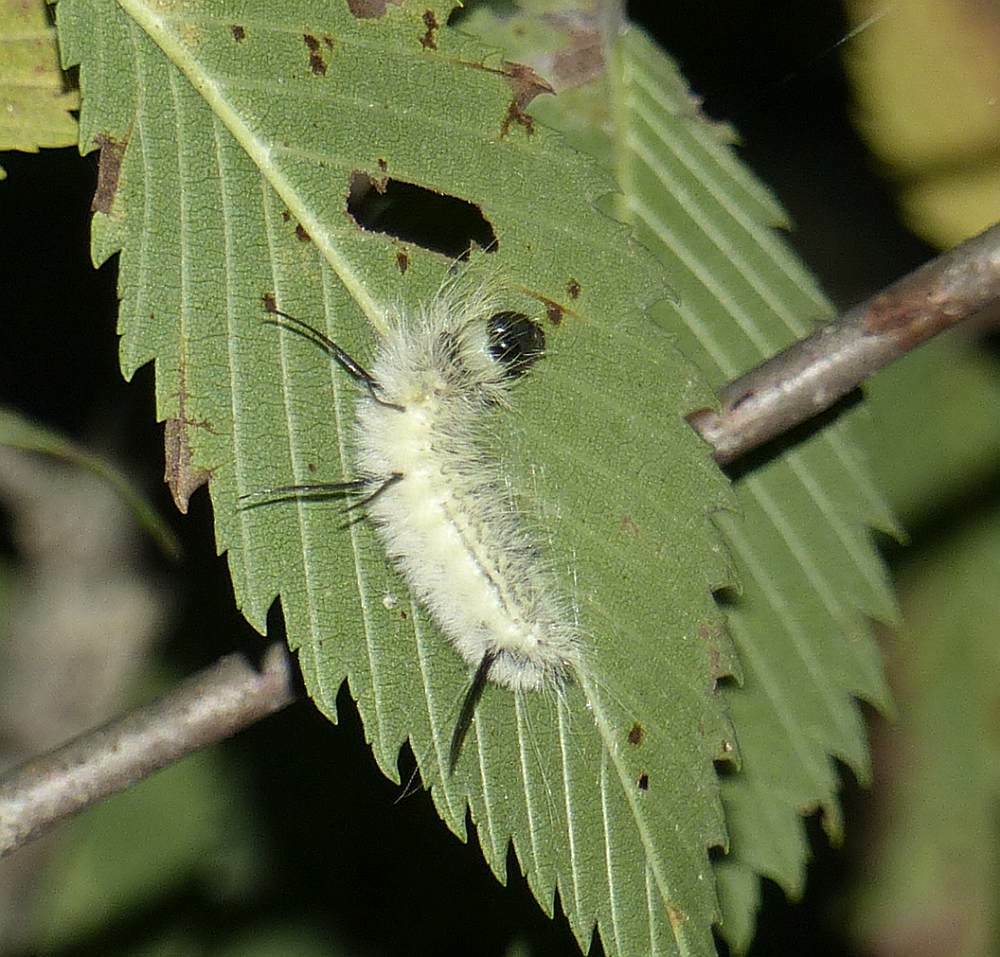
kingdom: Animalia
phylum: Arthropoda
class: Insecta
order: Lepidoptera
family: Noctuidae
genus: Acronicta
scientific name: Acronicta americana
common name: American dagger
